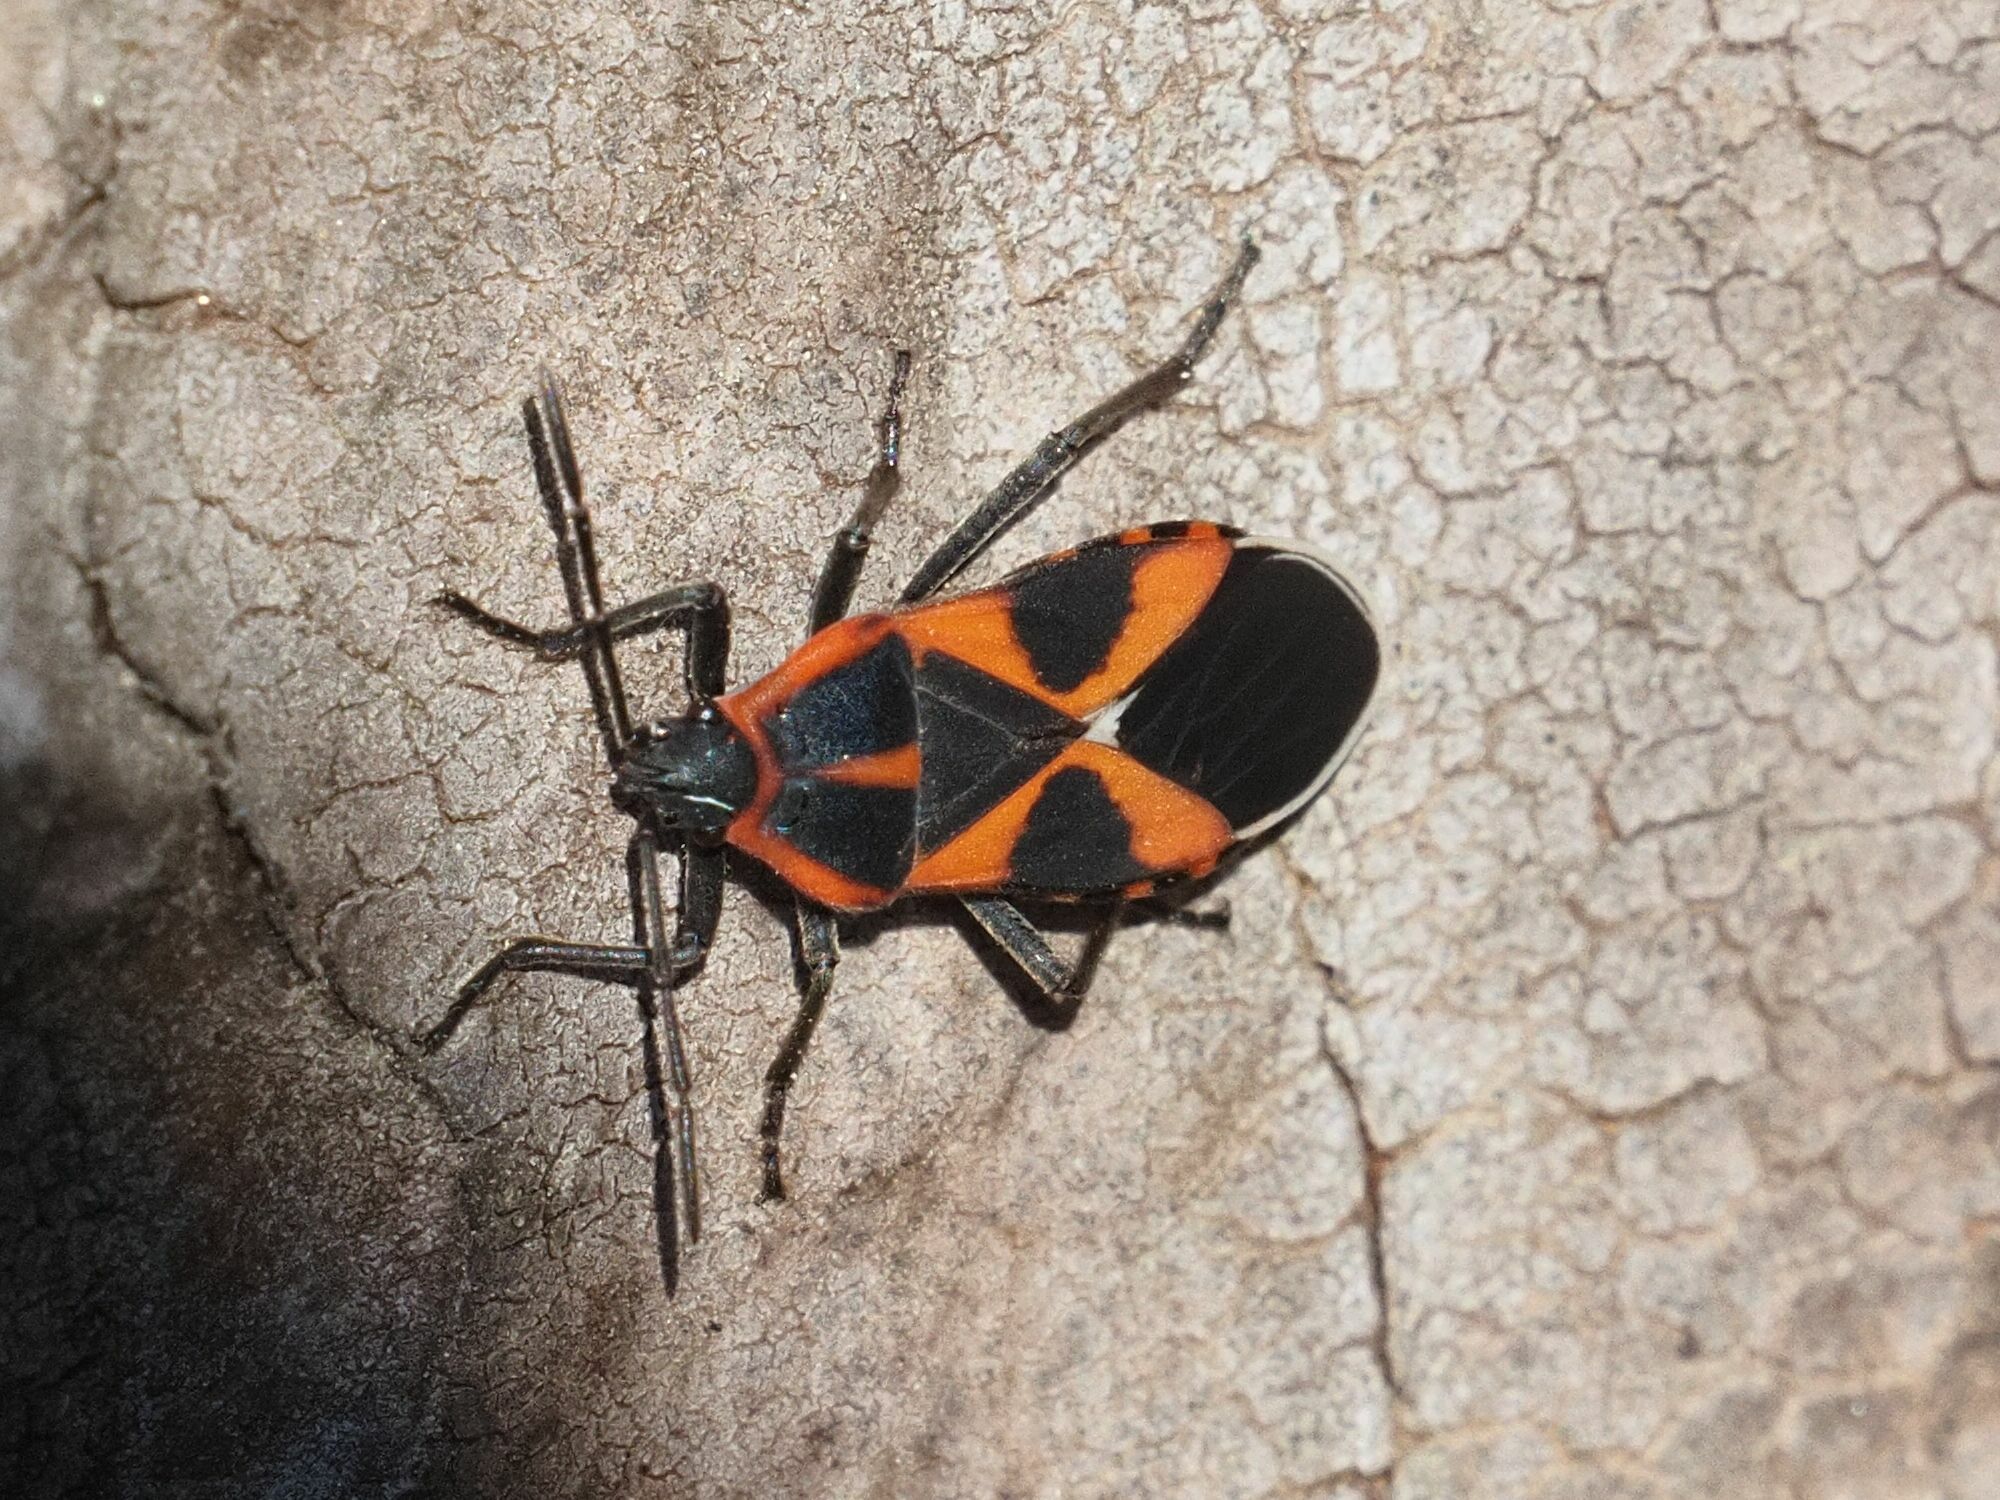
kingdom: Animalia
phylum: Arthropoda
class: Insecta
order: Hemiptera
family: Lygaeidae
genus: Tropidothorax
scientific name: Tropidothorax leucopterus
